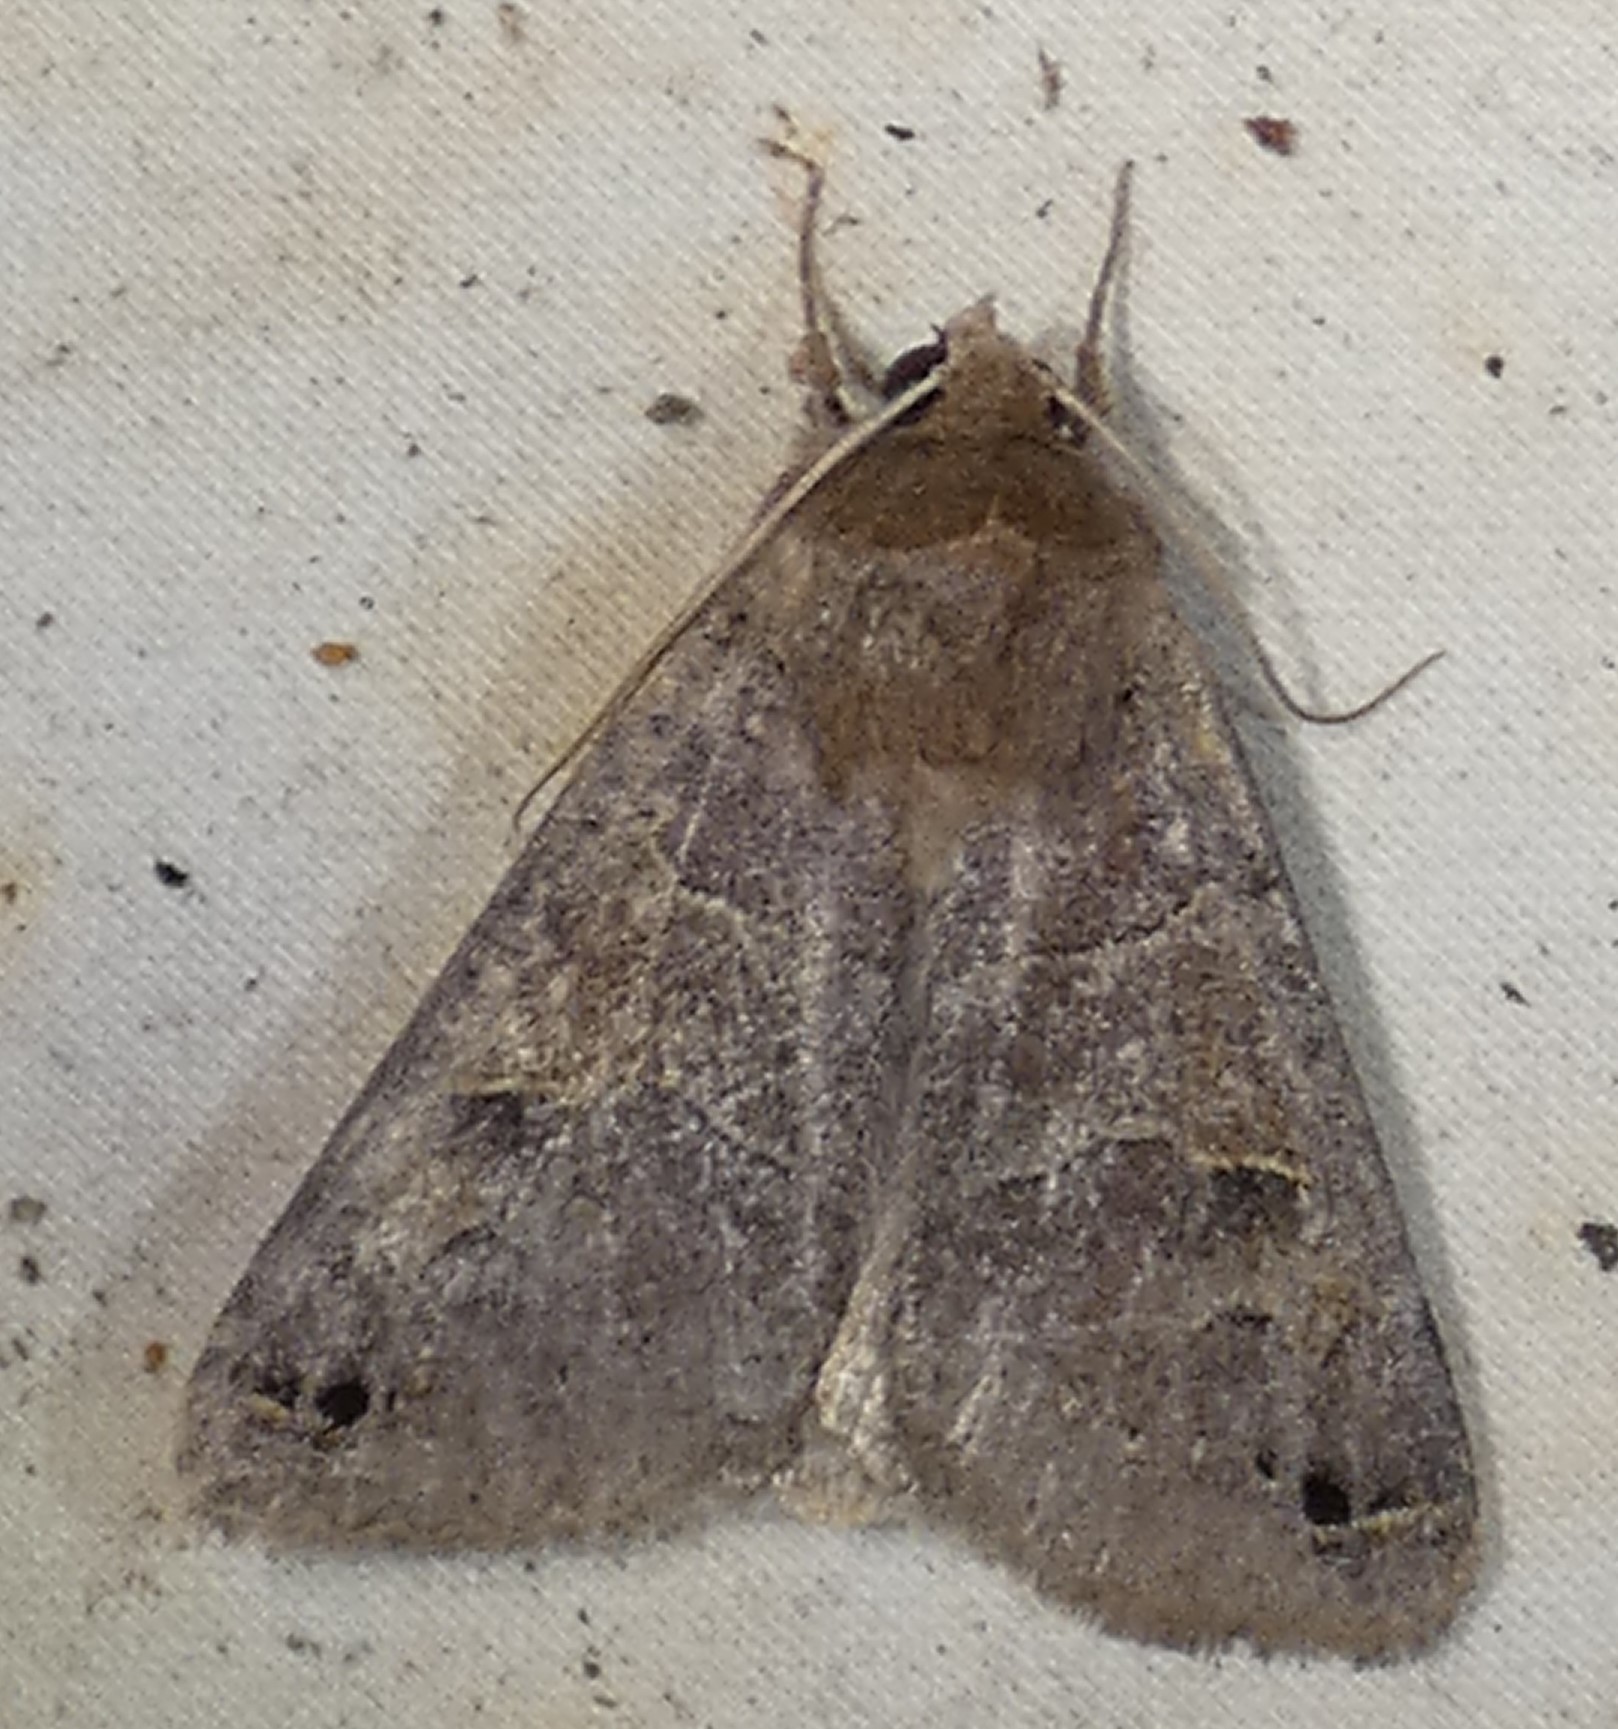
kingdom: Animalia
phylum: Arthropoda
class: Insecta
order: Lepidoptera
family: Erebidae
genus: Cissusa
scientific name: Cissusa spadix
